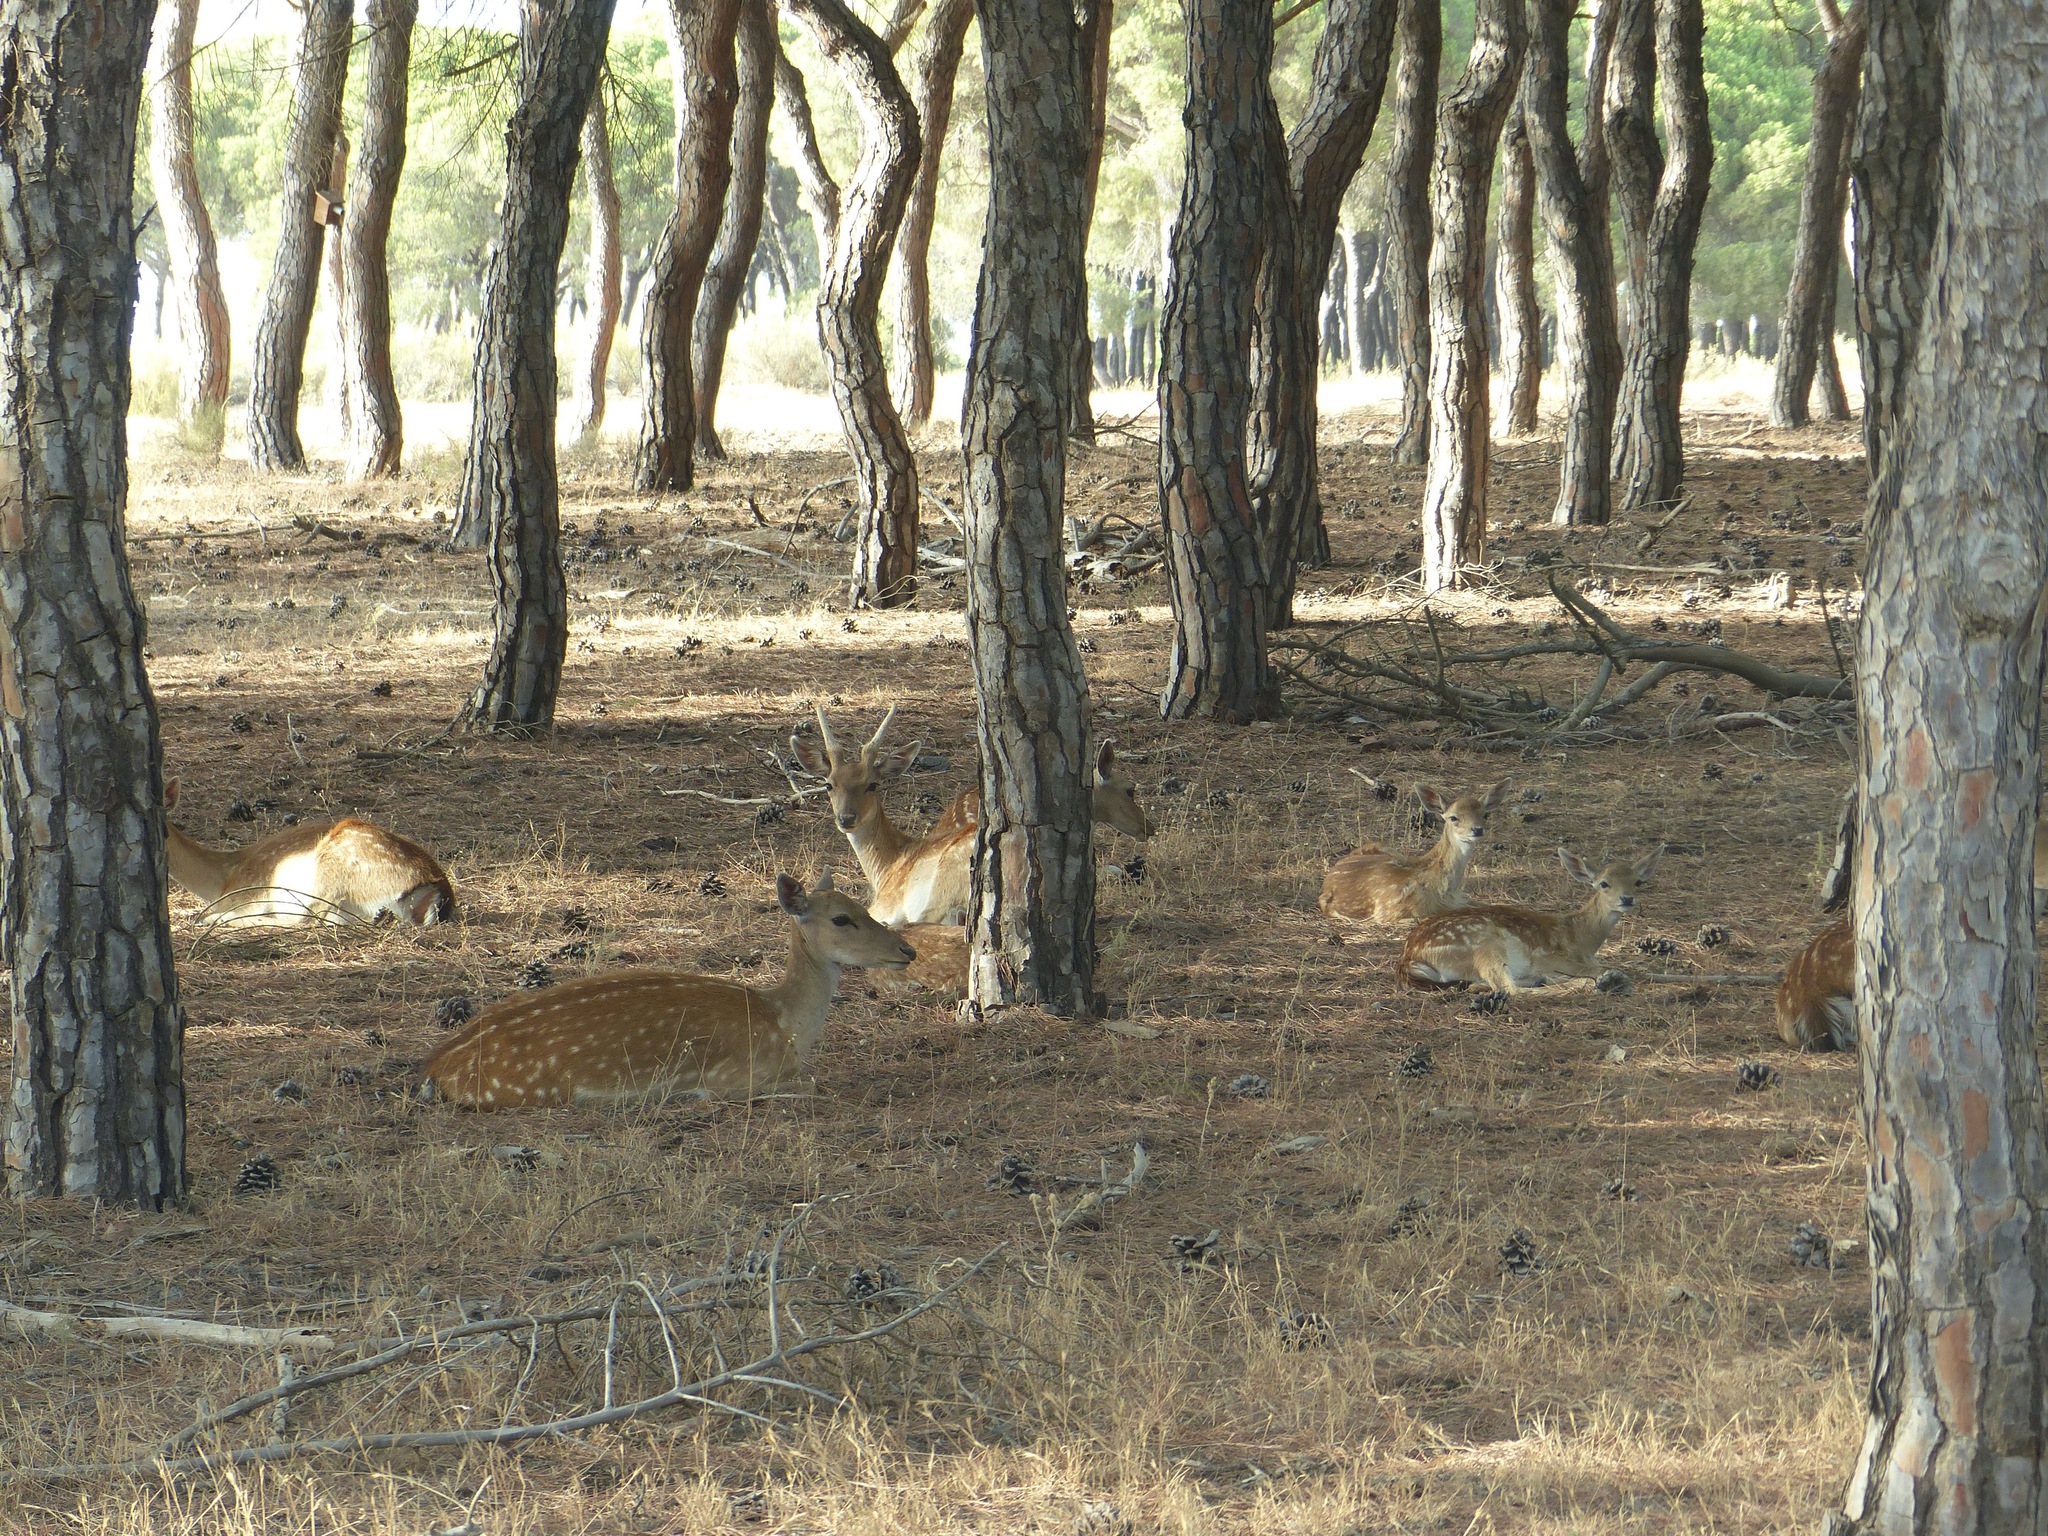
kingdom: Animalia
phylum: Chordata
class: Mammalia
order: Artiodactyla
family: Cervidae
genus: Dama
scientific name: Dama dama
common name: Fallow deer
